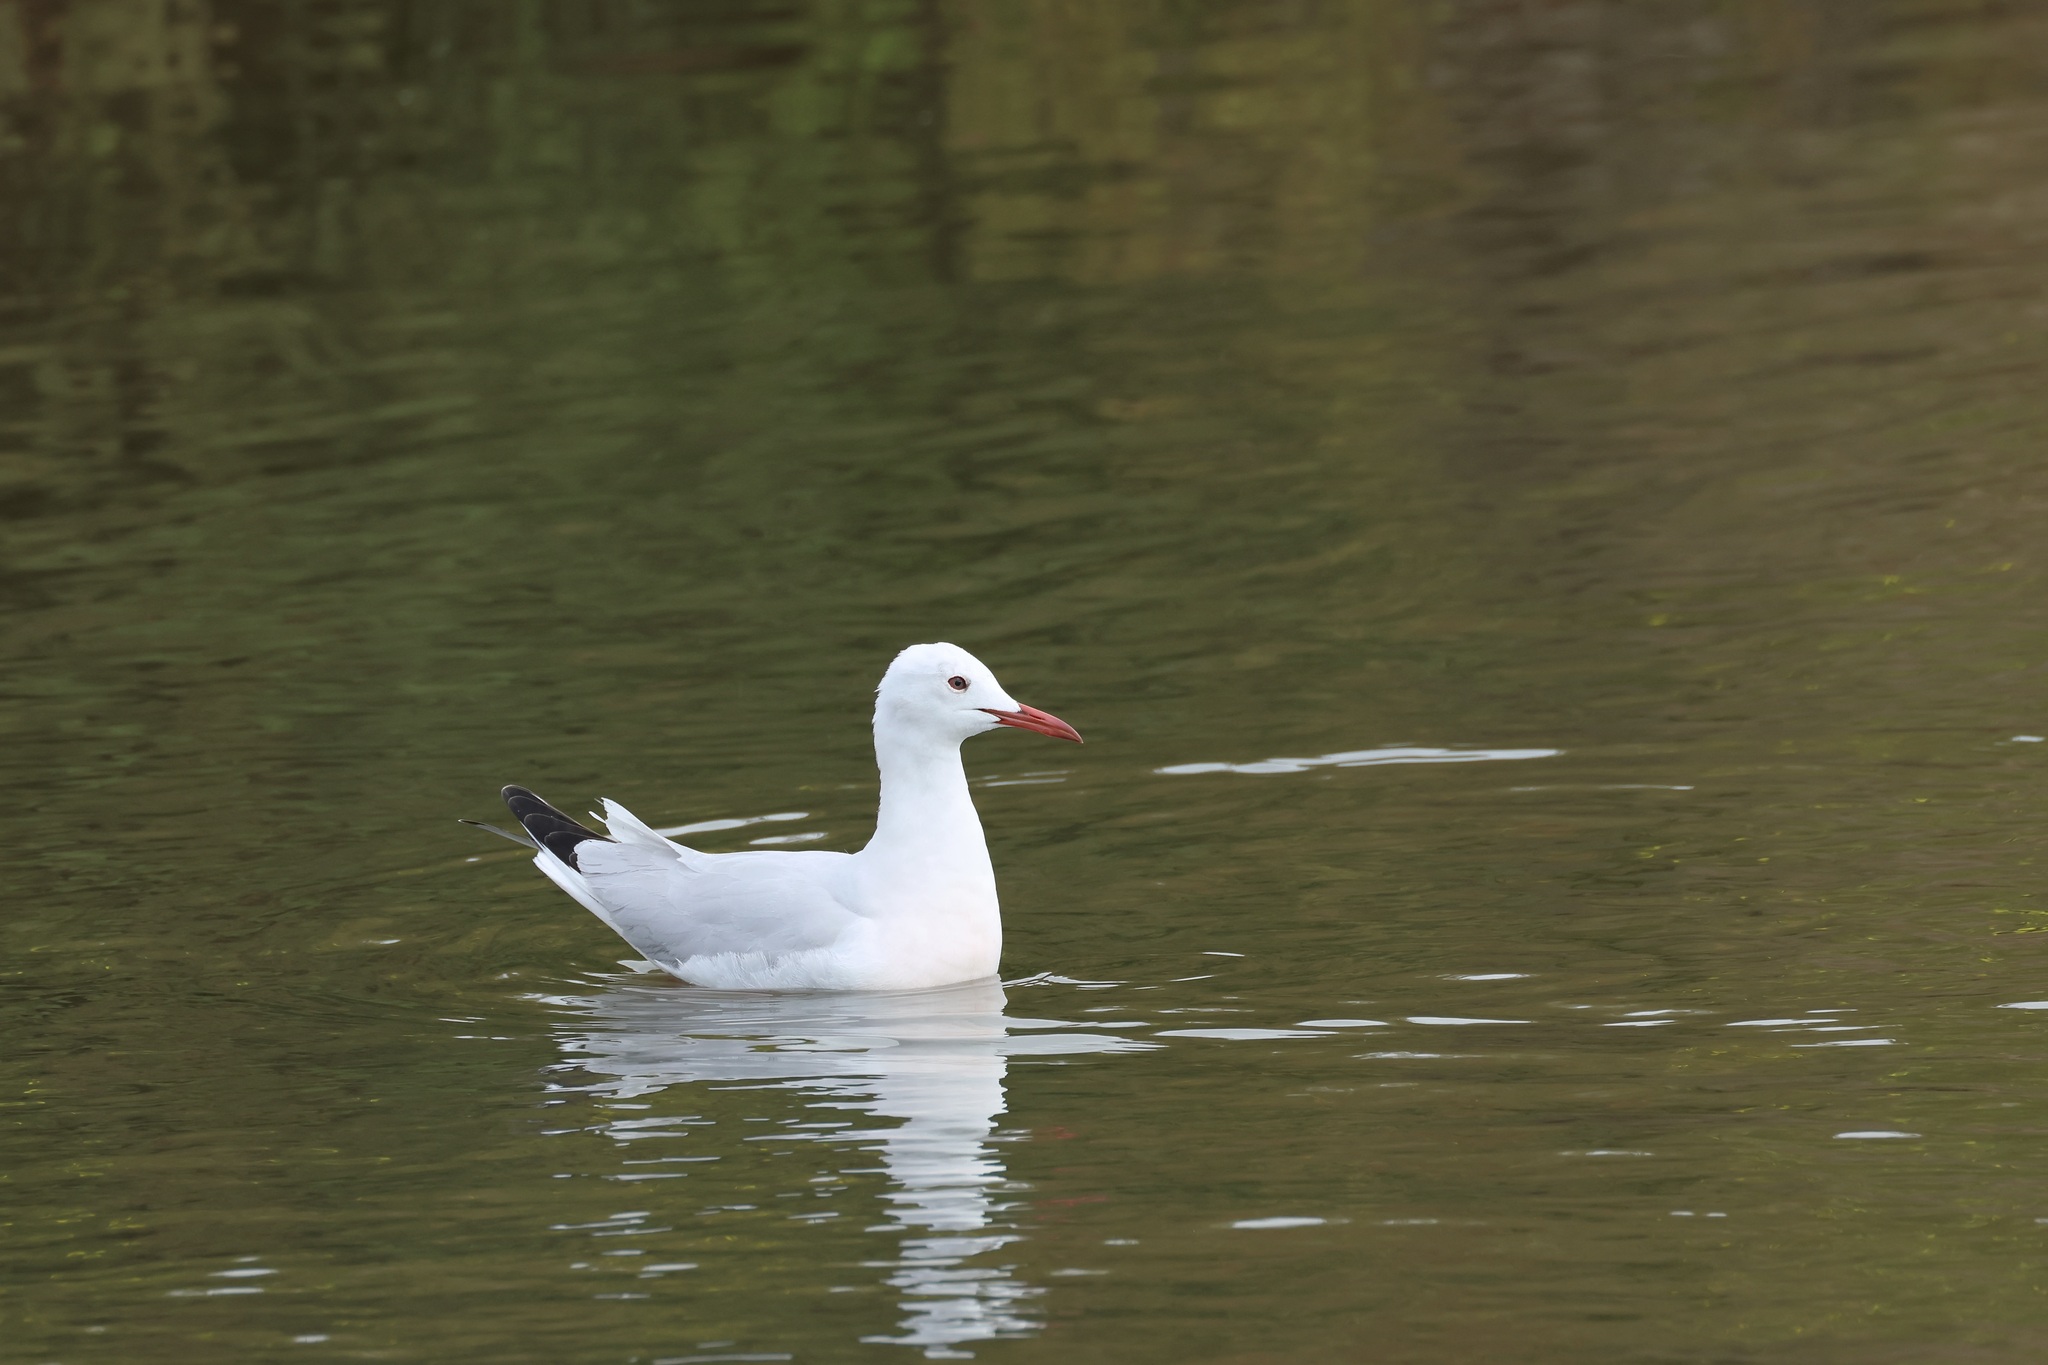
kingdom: Animalia
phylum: Chordata
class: Aves
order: Charadriiformes
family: Laridae
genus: Chroicocephalus
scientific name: Chroicocephalus genei
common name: Slender-billed gull
